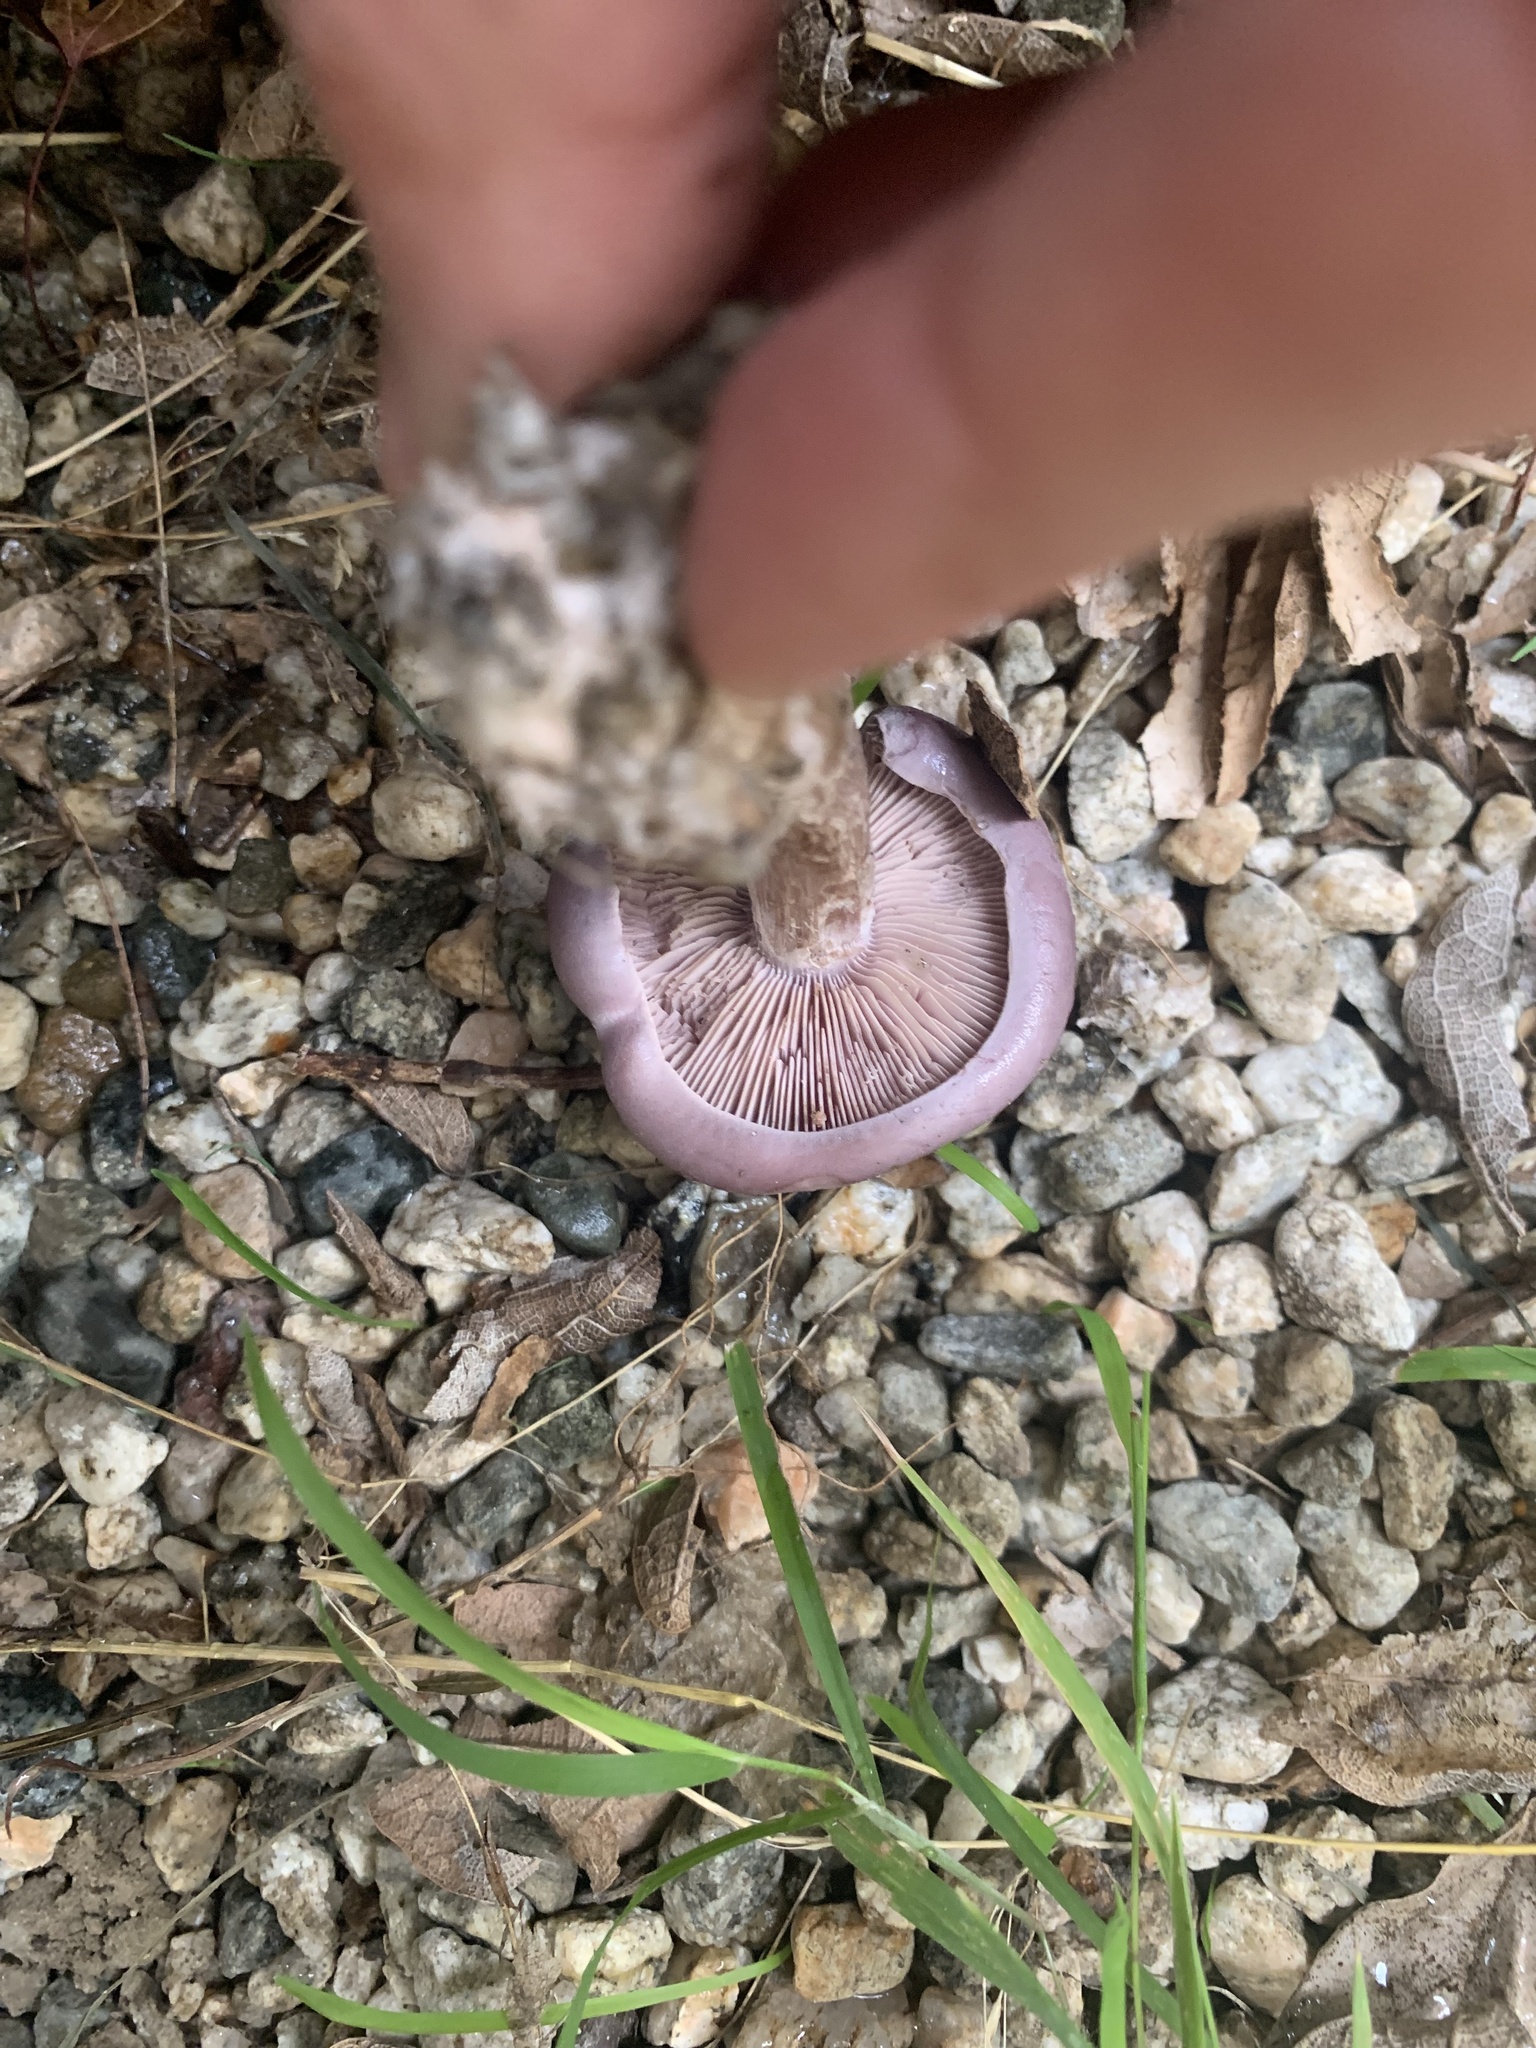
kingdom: Fungi
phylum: Basidiomycota
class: Agaricomycetes
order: Agaricales
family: Tricholomataceae
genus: Collybia
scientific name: Collybia
